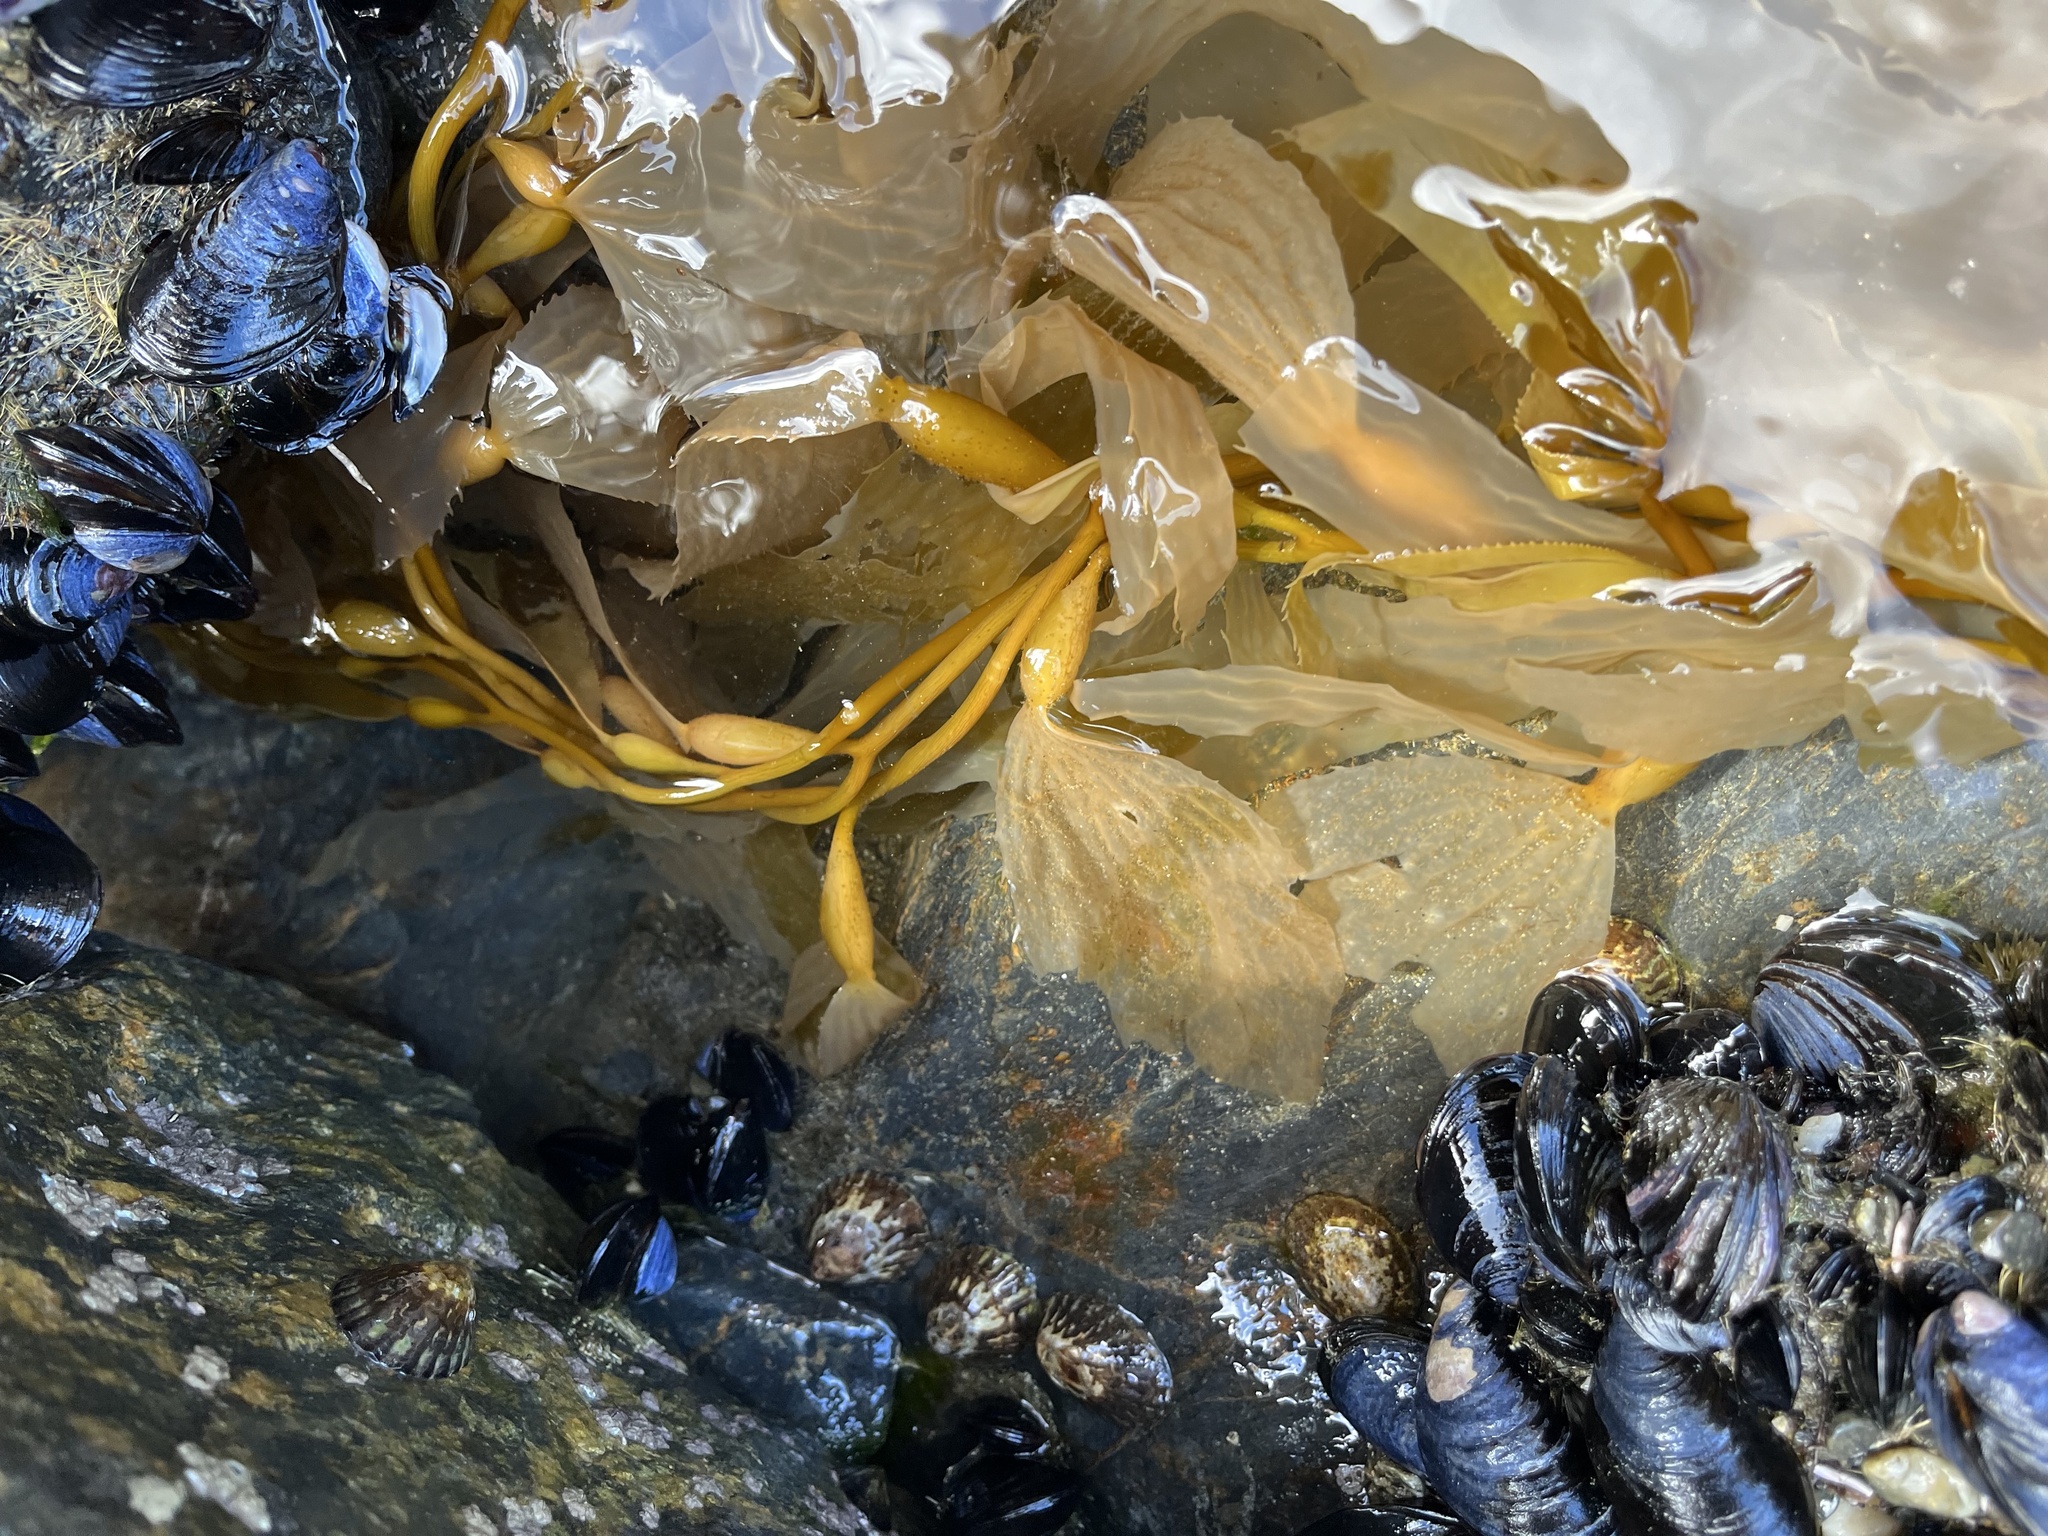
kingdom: Chromista
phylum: Ochrophyta
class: Phaeophyceae
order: Laminariales
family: Laminariaceae
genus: Macrocystis
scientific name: Macrocystis pyrifera
